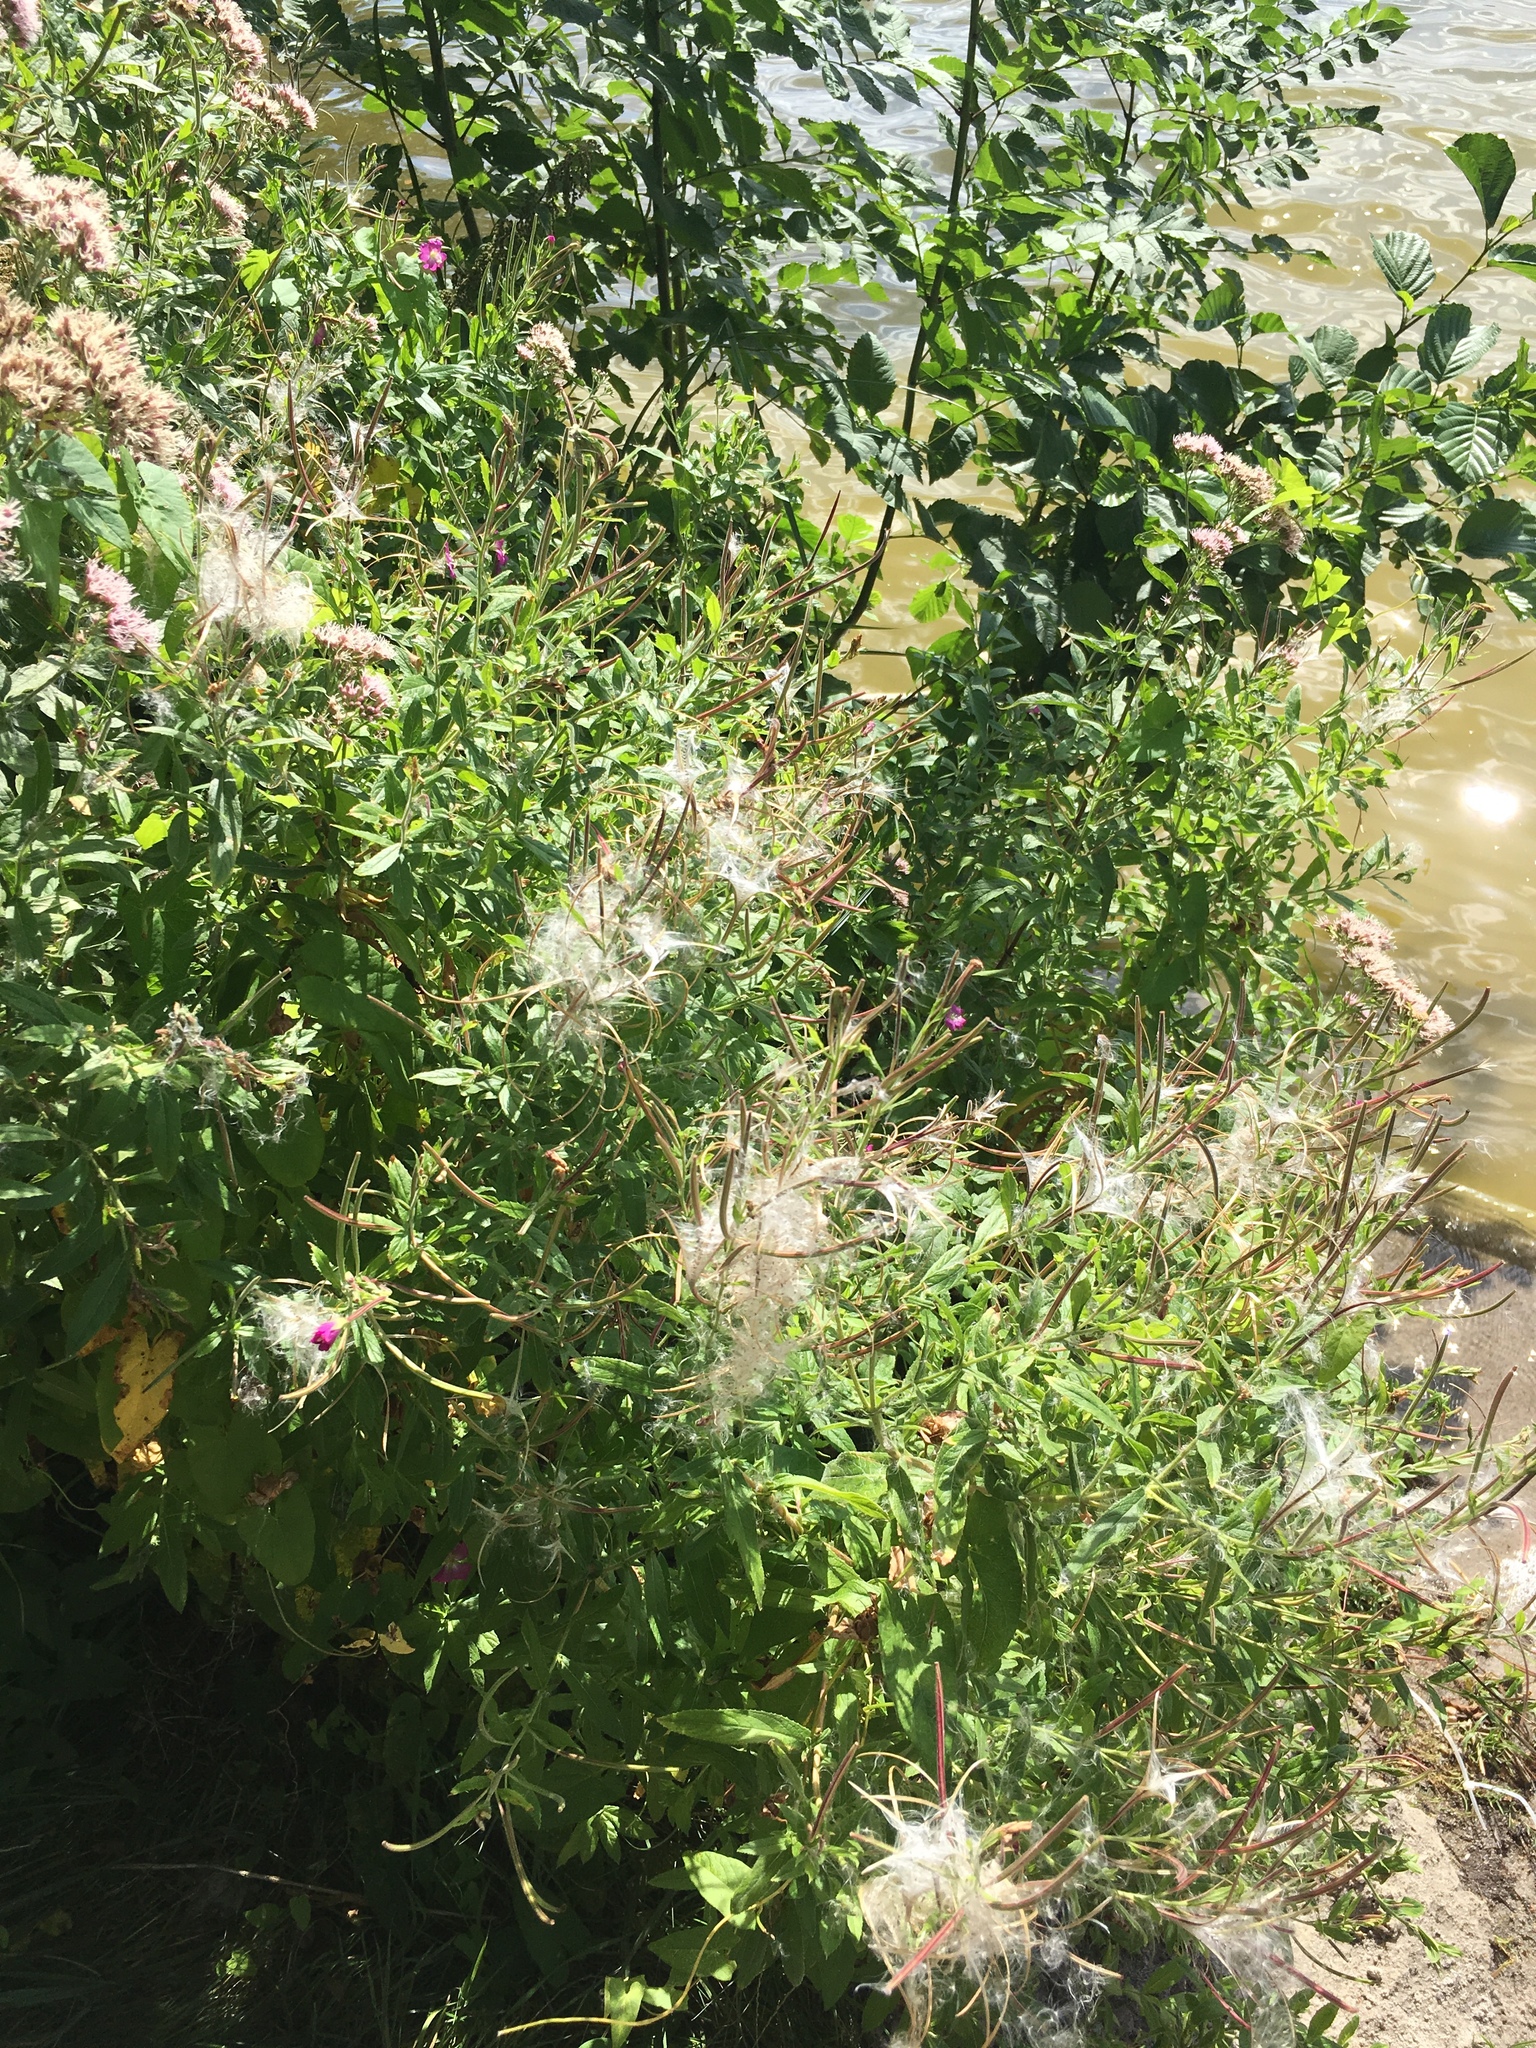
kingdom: Plantae
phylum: Tracheophyta
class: Magnoliopsida
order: Myrtales
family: Onagraceae
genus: Epilobium
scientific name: Epilobium hirsutum
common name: Great willowherb
